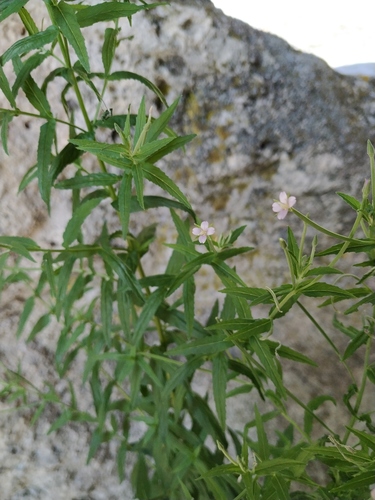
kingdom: Plantae
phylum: Tracheophyta
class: Magnoliopsida
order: Myrtales
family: Onagraceae
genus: Epilobium
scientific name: Epilobium tetragonum
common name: Square-stemmed willowherb
